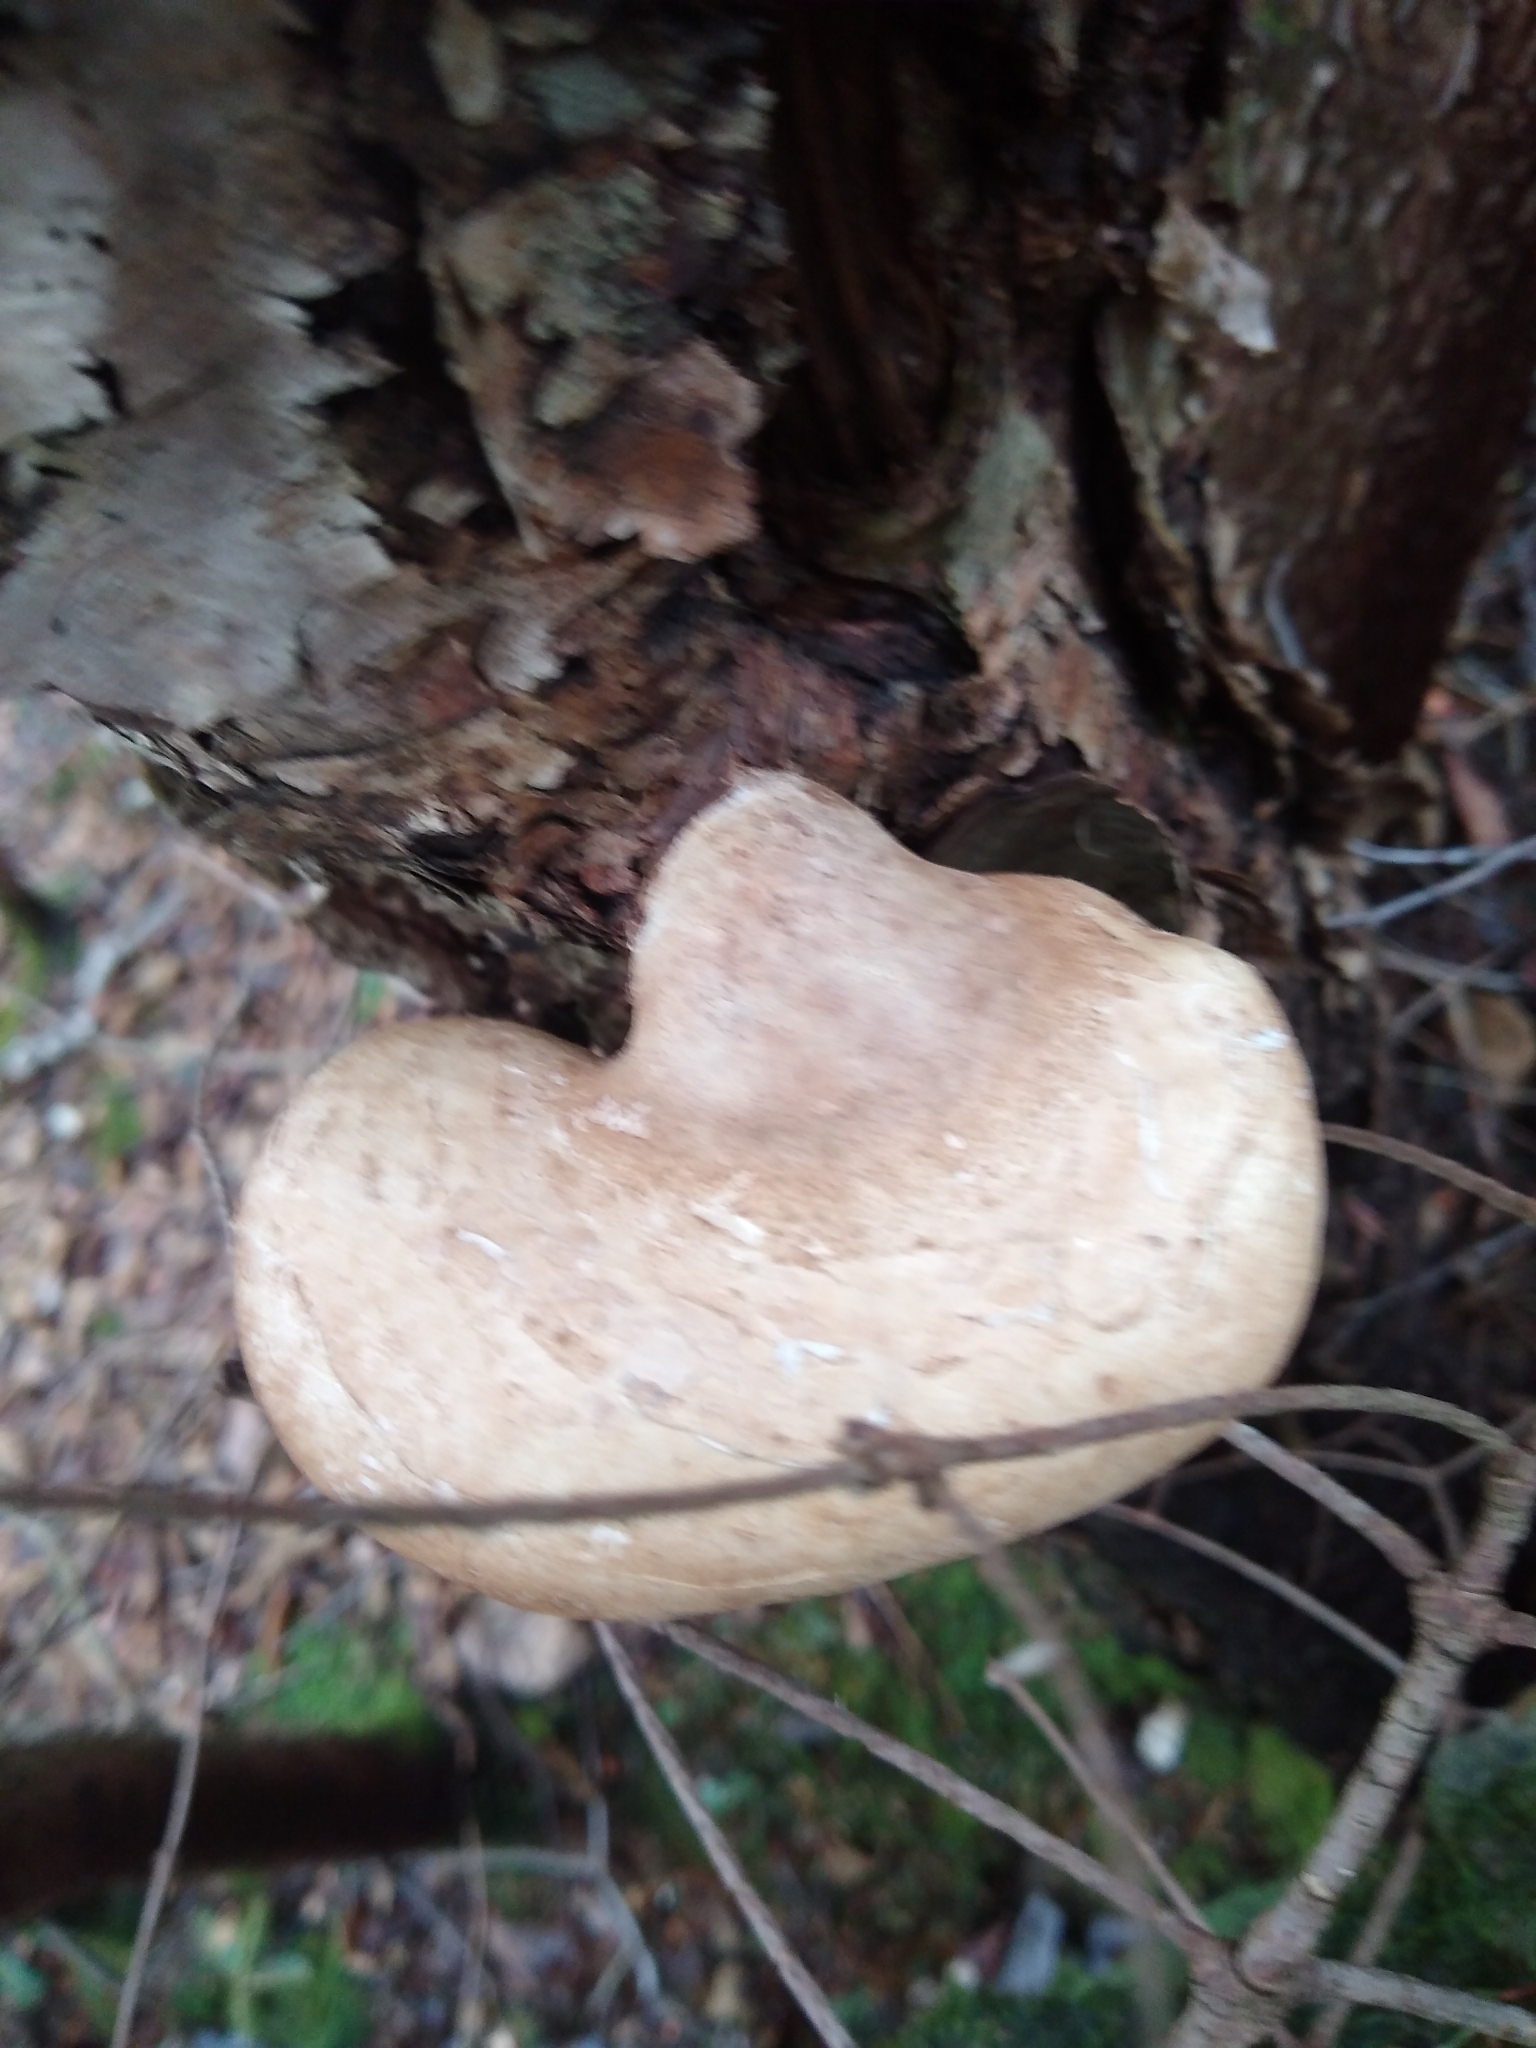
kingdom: Fungi
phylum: Basidiomycota
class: Agaricomycetes
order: Polyporales
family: Fomitopsidaceae
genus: Fomitopsis
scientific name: Fomitopsis betulina
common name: Birch polypore
